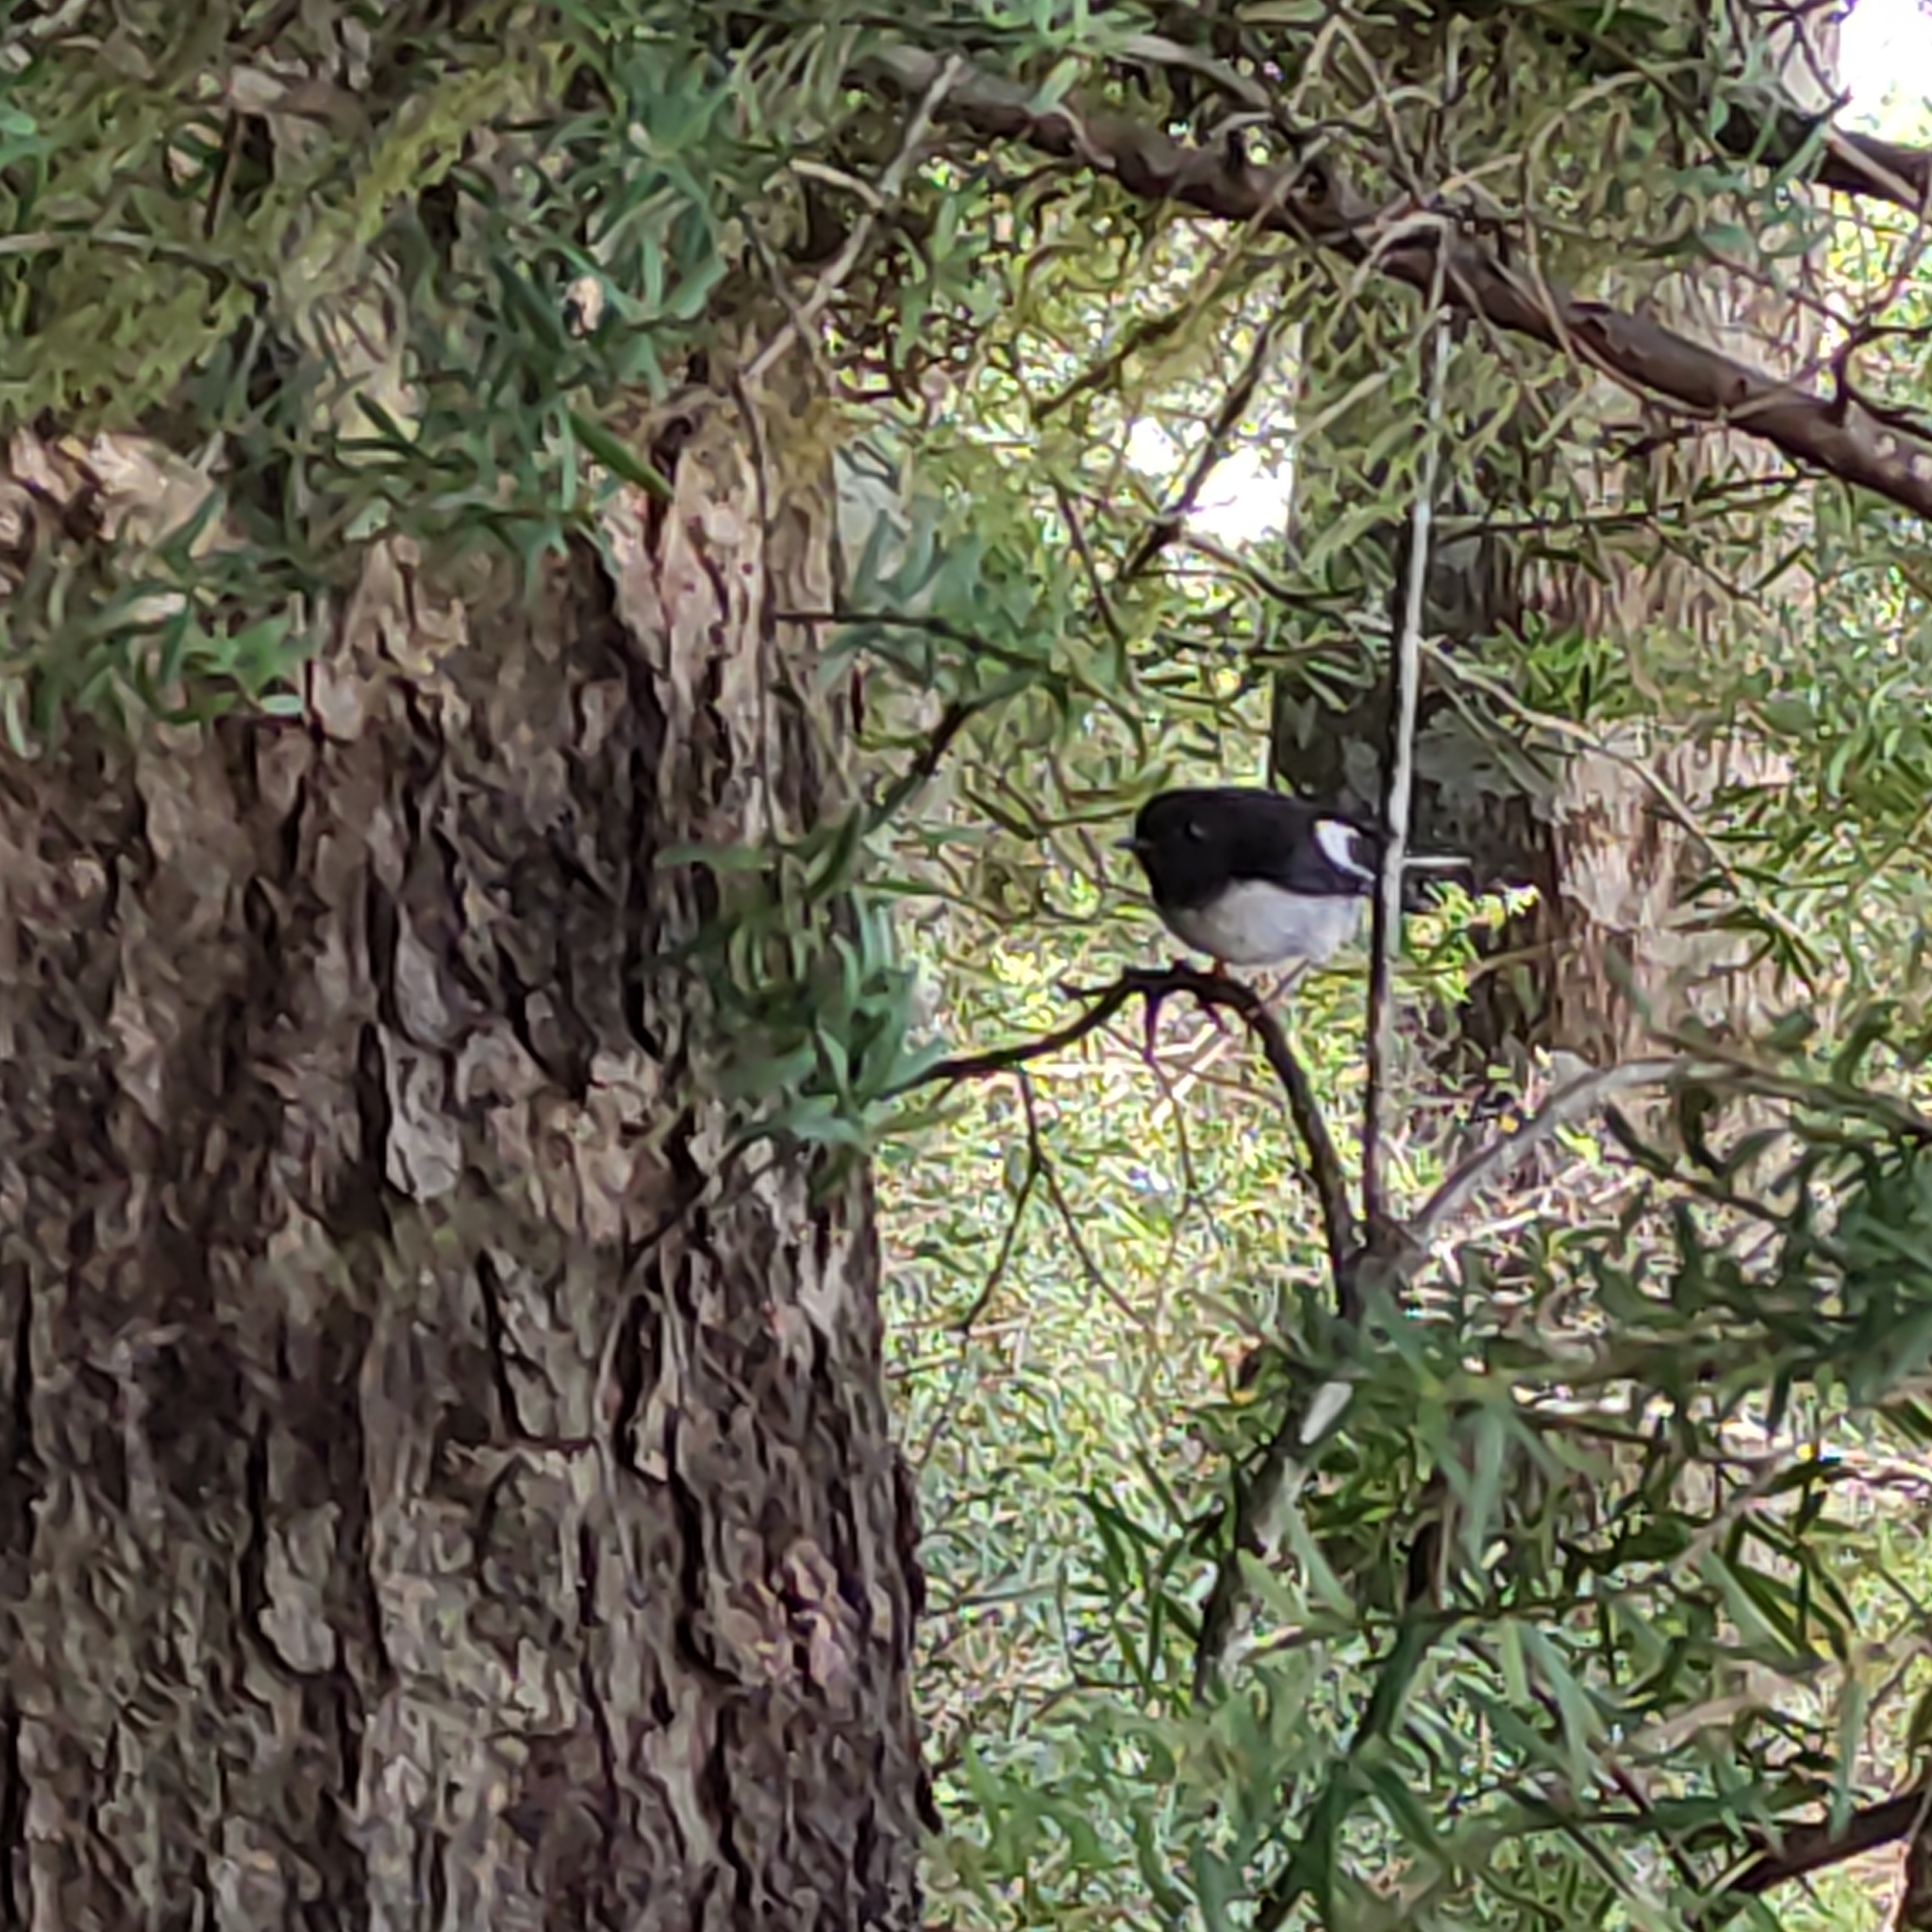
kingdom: Animalia
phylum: Chordata
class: Aves
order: Passeriformes
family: Petroicidae
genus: Petroica
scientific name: Petroica macrocephala
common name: Tomtit
